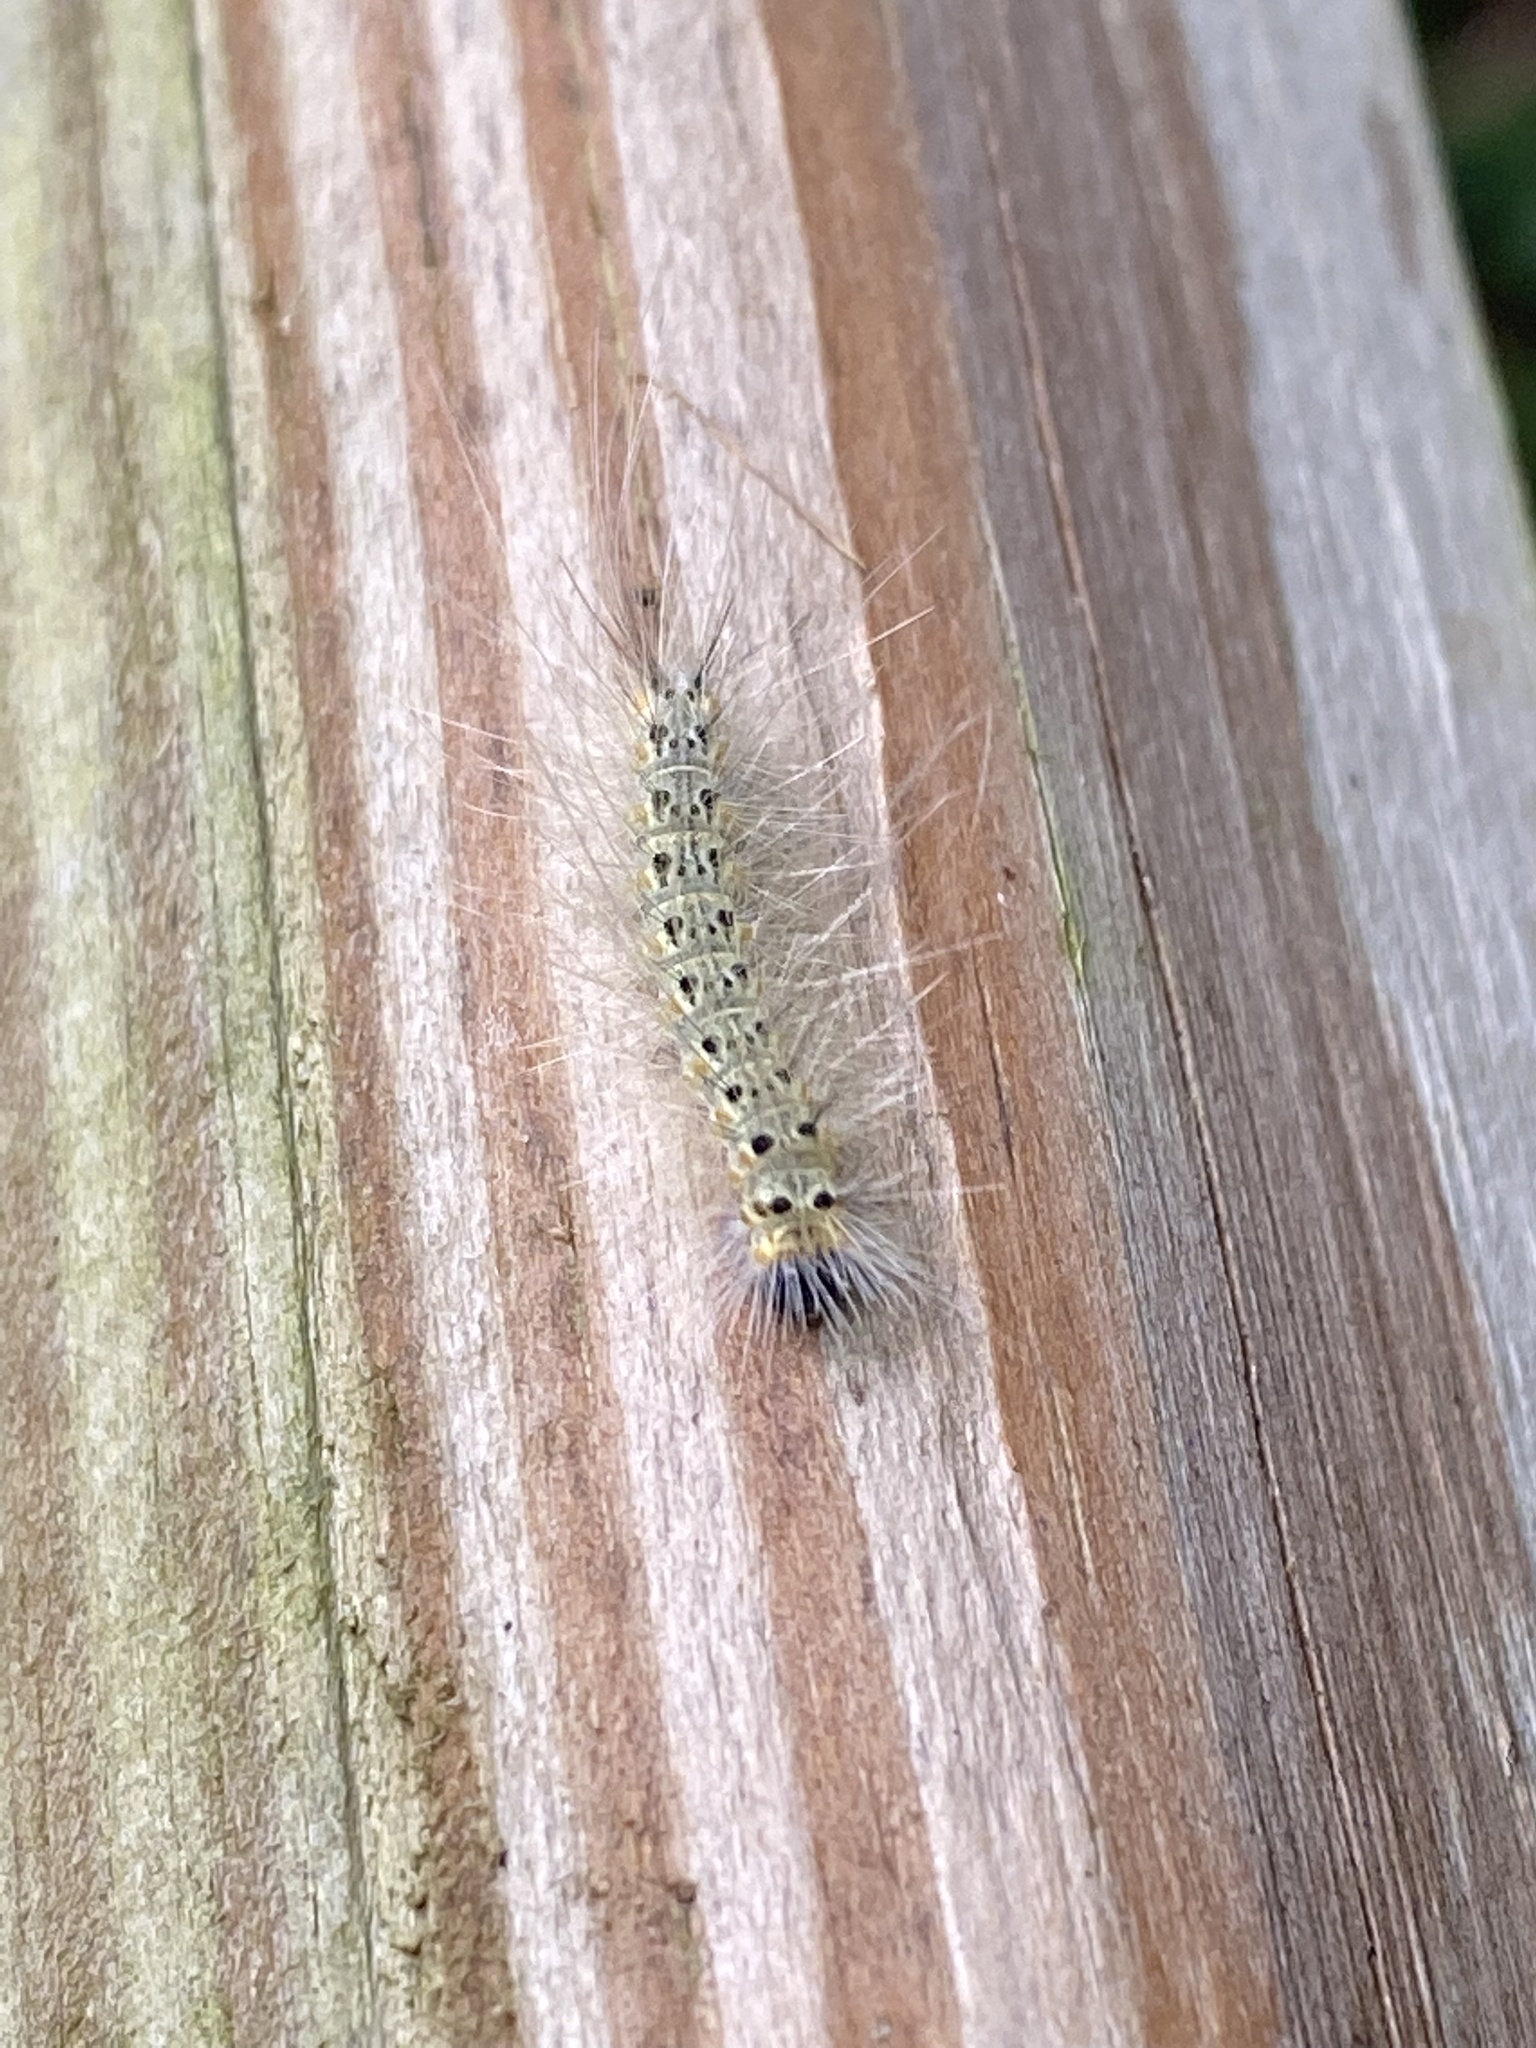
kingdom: Animalia
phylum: Arthropoda
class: Insecta
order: Lepidoptera
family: Erebidae
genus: Hyphantria
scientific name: Hyphantria cunea
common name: American white moth
